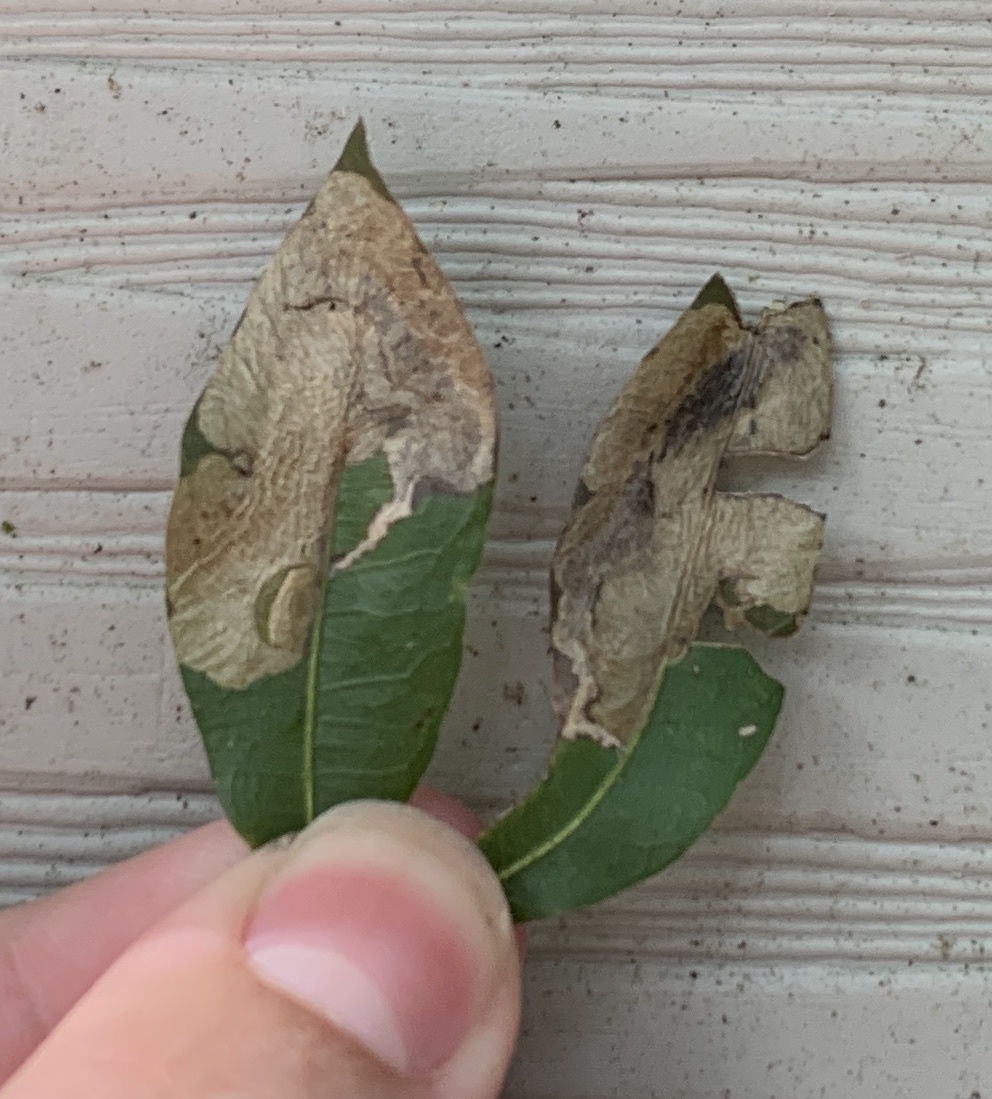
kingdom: Animalia
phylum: Arthropoda
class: Insecta
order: Lepidoptera
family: Tischeriidae
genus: Coptotriche
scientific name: Coptotriche castaneaeella
